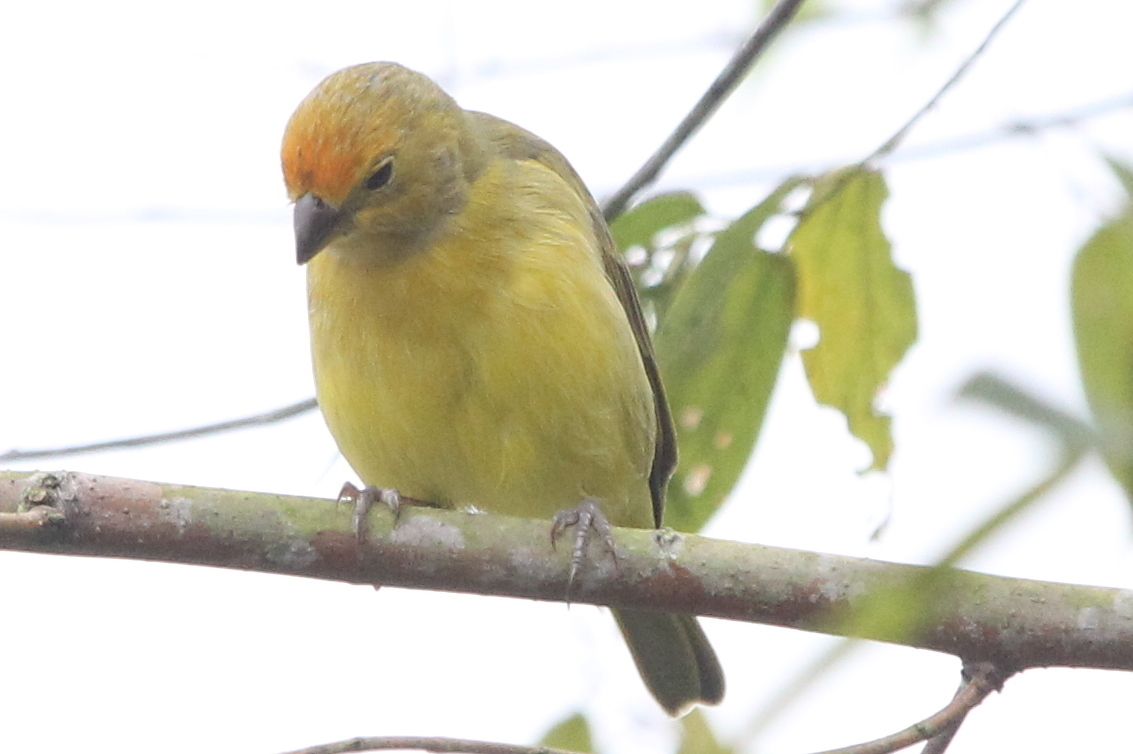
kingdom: Animalia
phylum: Chordata
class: Aves
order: Passeriformes
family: Thraupidae
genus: Sicalis
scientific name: Sicalis flaveola
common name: Saffron finch
